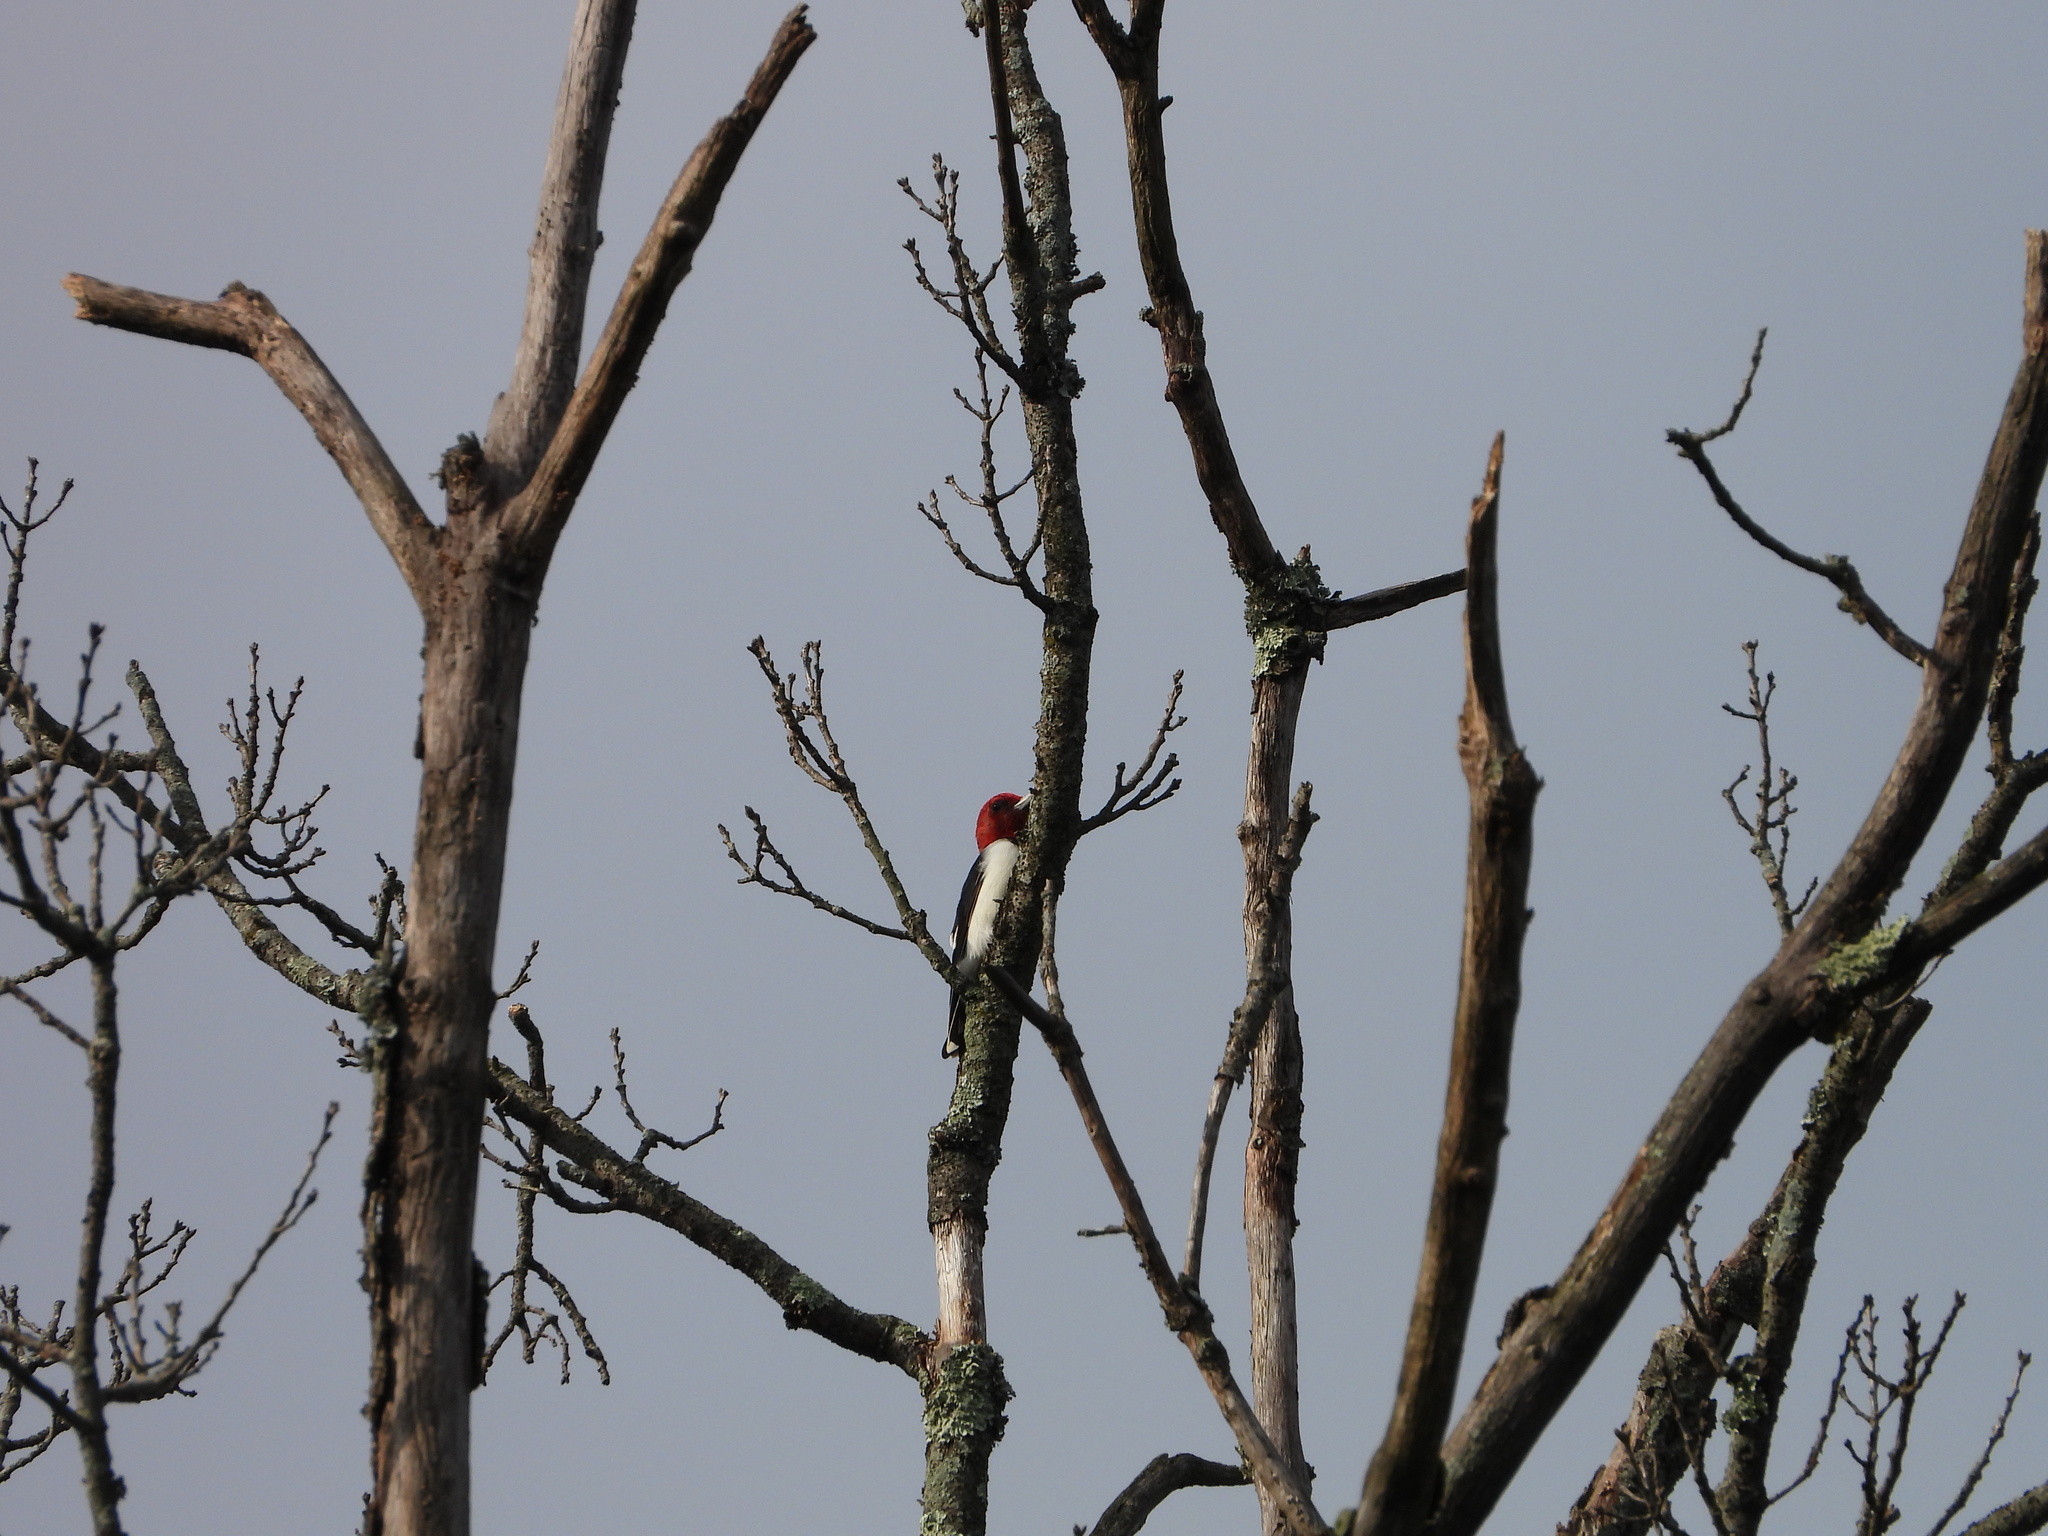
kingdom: Animalia
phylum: Chordata
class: Aves
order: Piciformes
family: Picidae
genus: Melanerpes
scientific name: Melanerpes erythrocephalus
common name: Red-headed woodpecker
